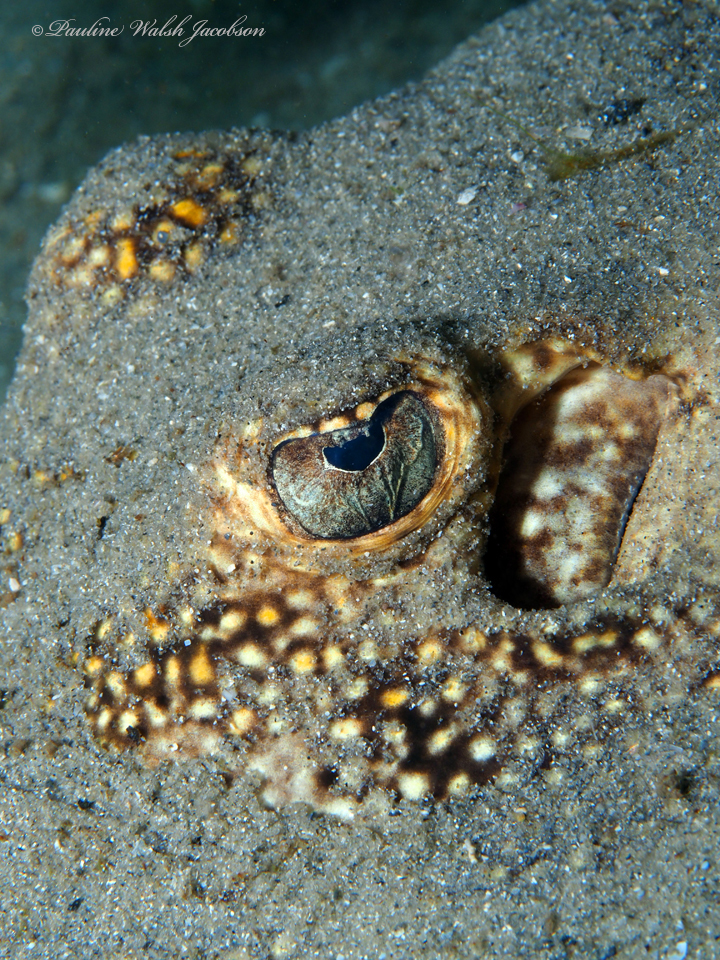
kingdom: Animalia
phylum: Chordata
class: Elasmobranchii
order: Myliobatiformes
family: Urotrygonidae
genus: Urobatis
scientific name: Urobatis jamaicensis
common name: Yellow stingray
